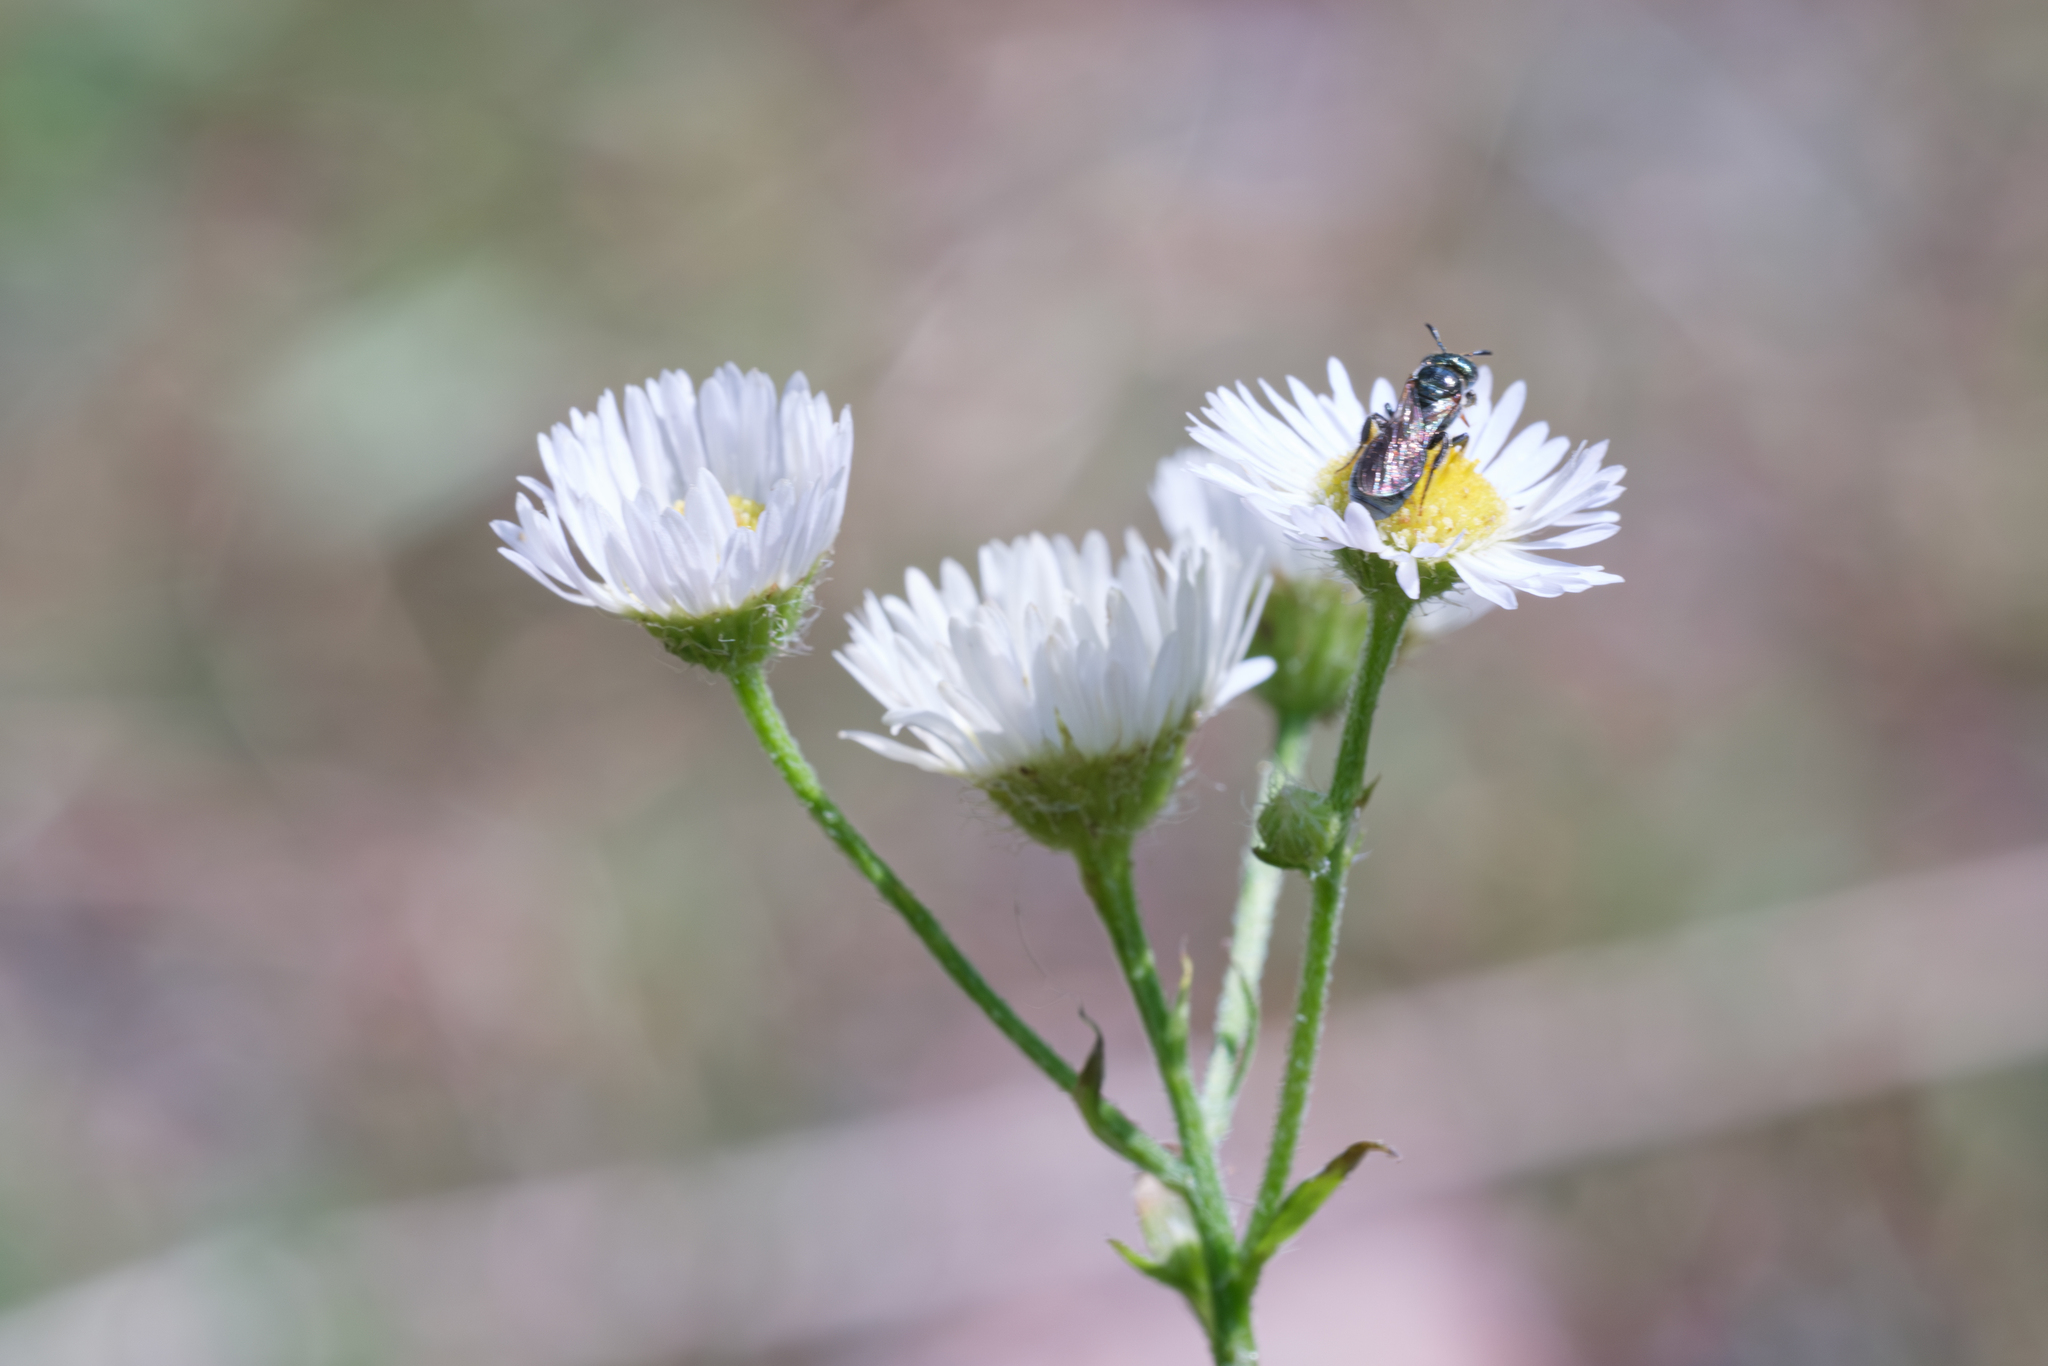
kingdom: Animalia
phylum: Arthropoda
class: Insecta
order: Hymenoptera
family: Apidae
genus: Ceratina
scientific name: Ceratina strenua
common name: Nimble carpenter bee
